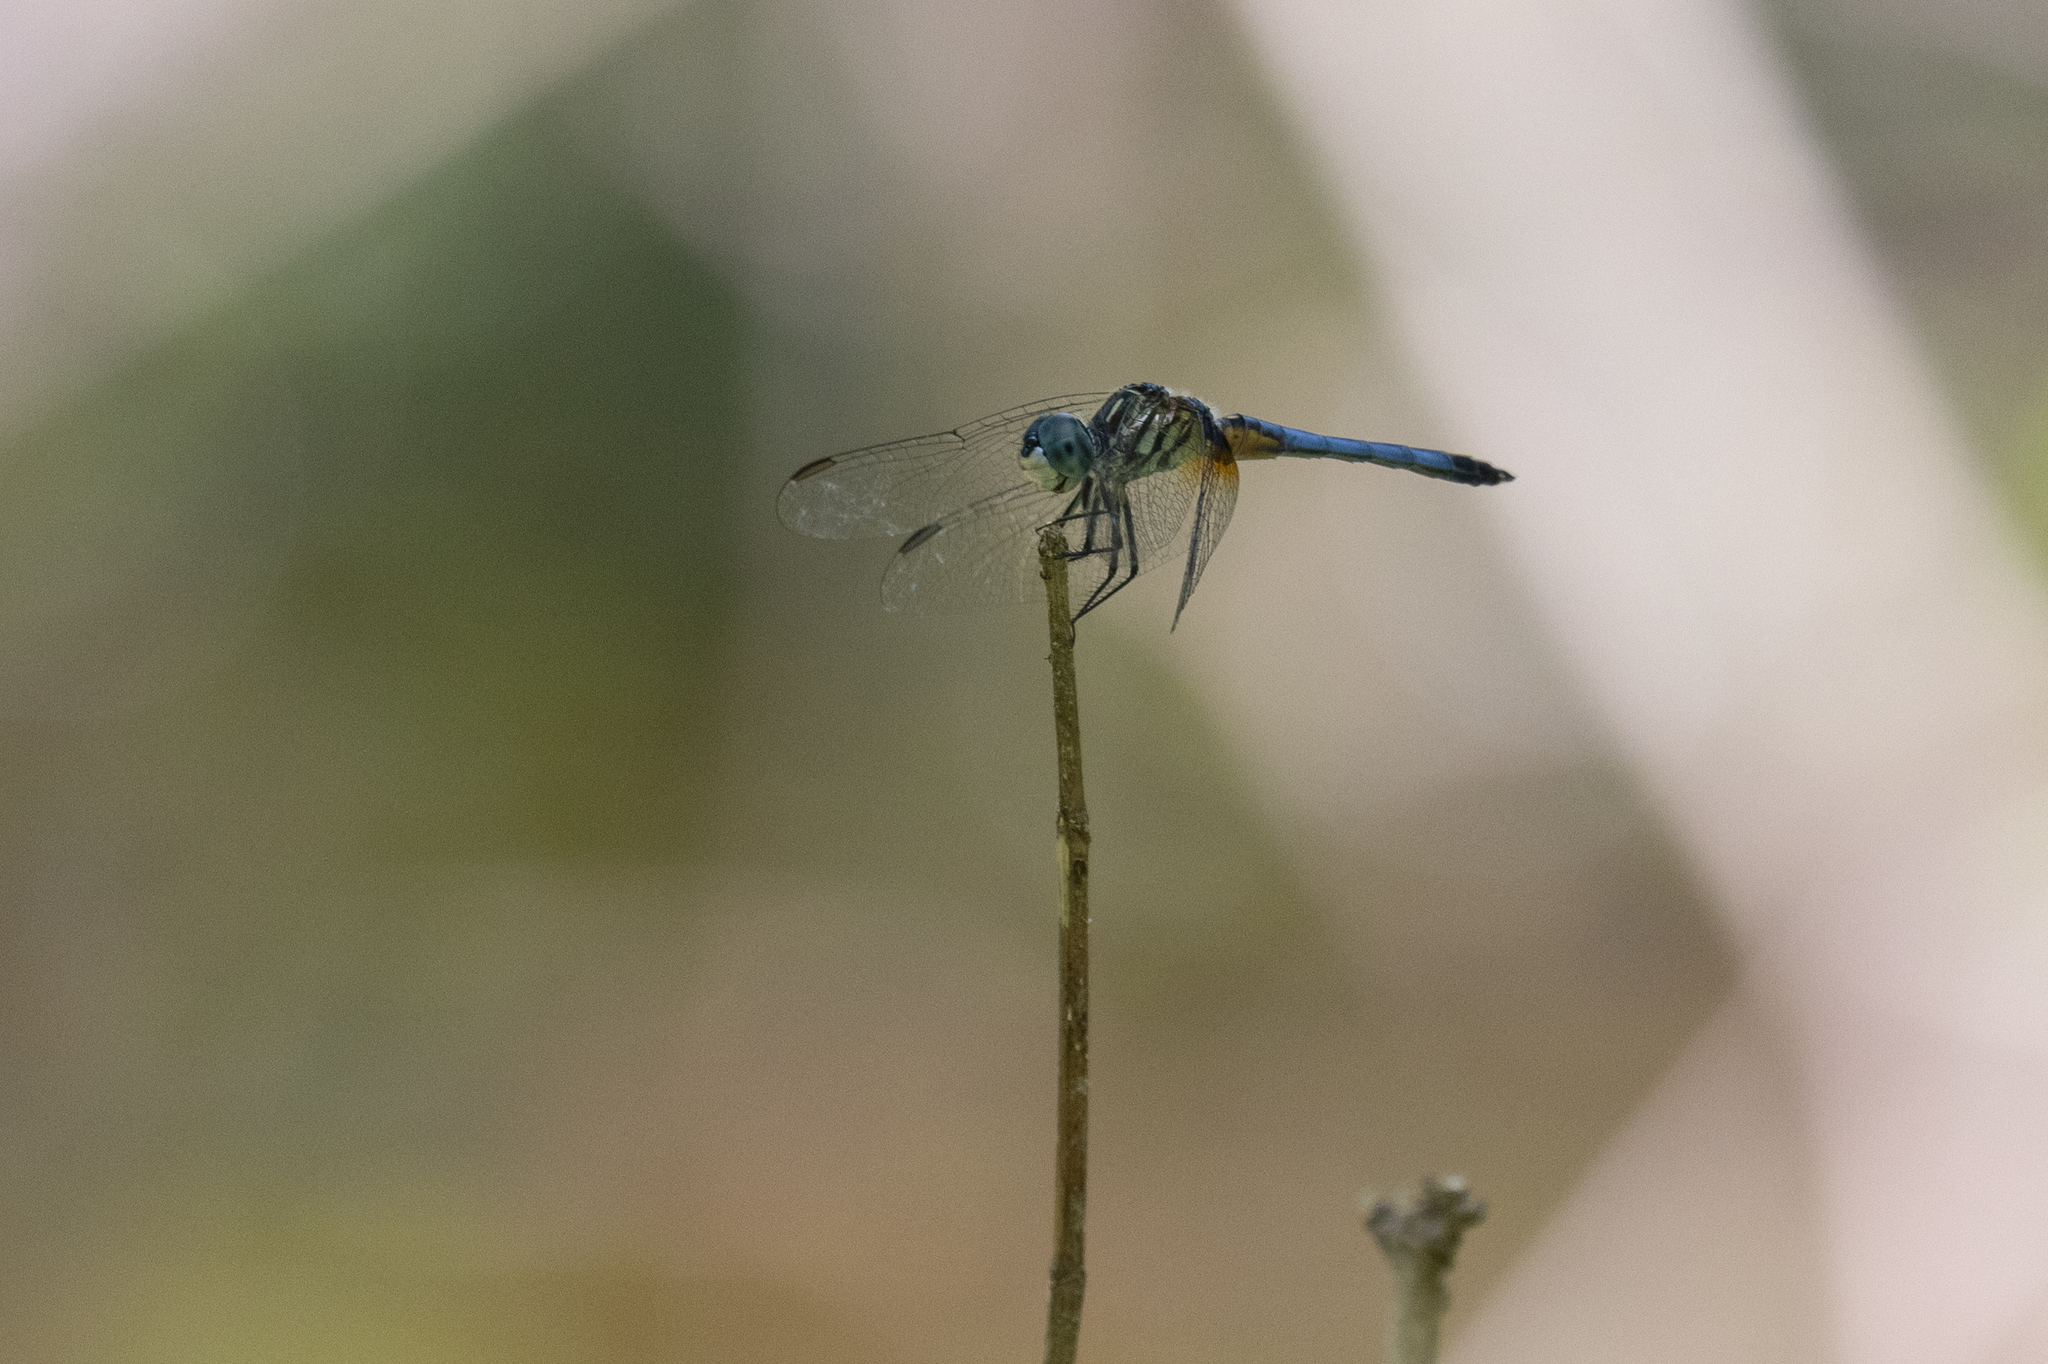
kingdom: Animalia
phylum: Arthropoda
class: Insecta
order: Odonata
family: Libellulidae
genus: Pachydiplax
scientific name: Pachydiplax longipennis
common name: Blue dasher
